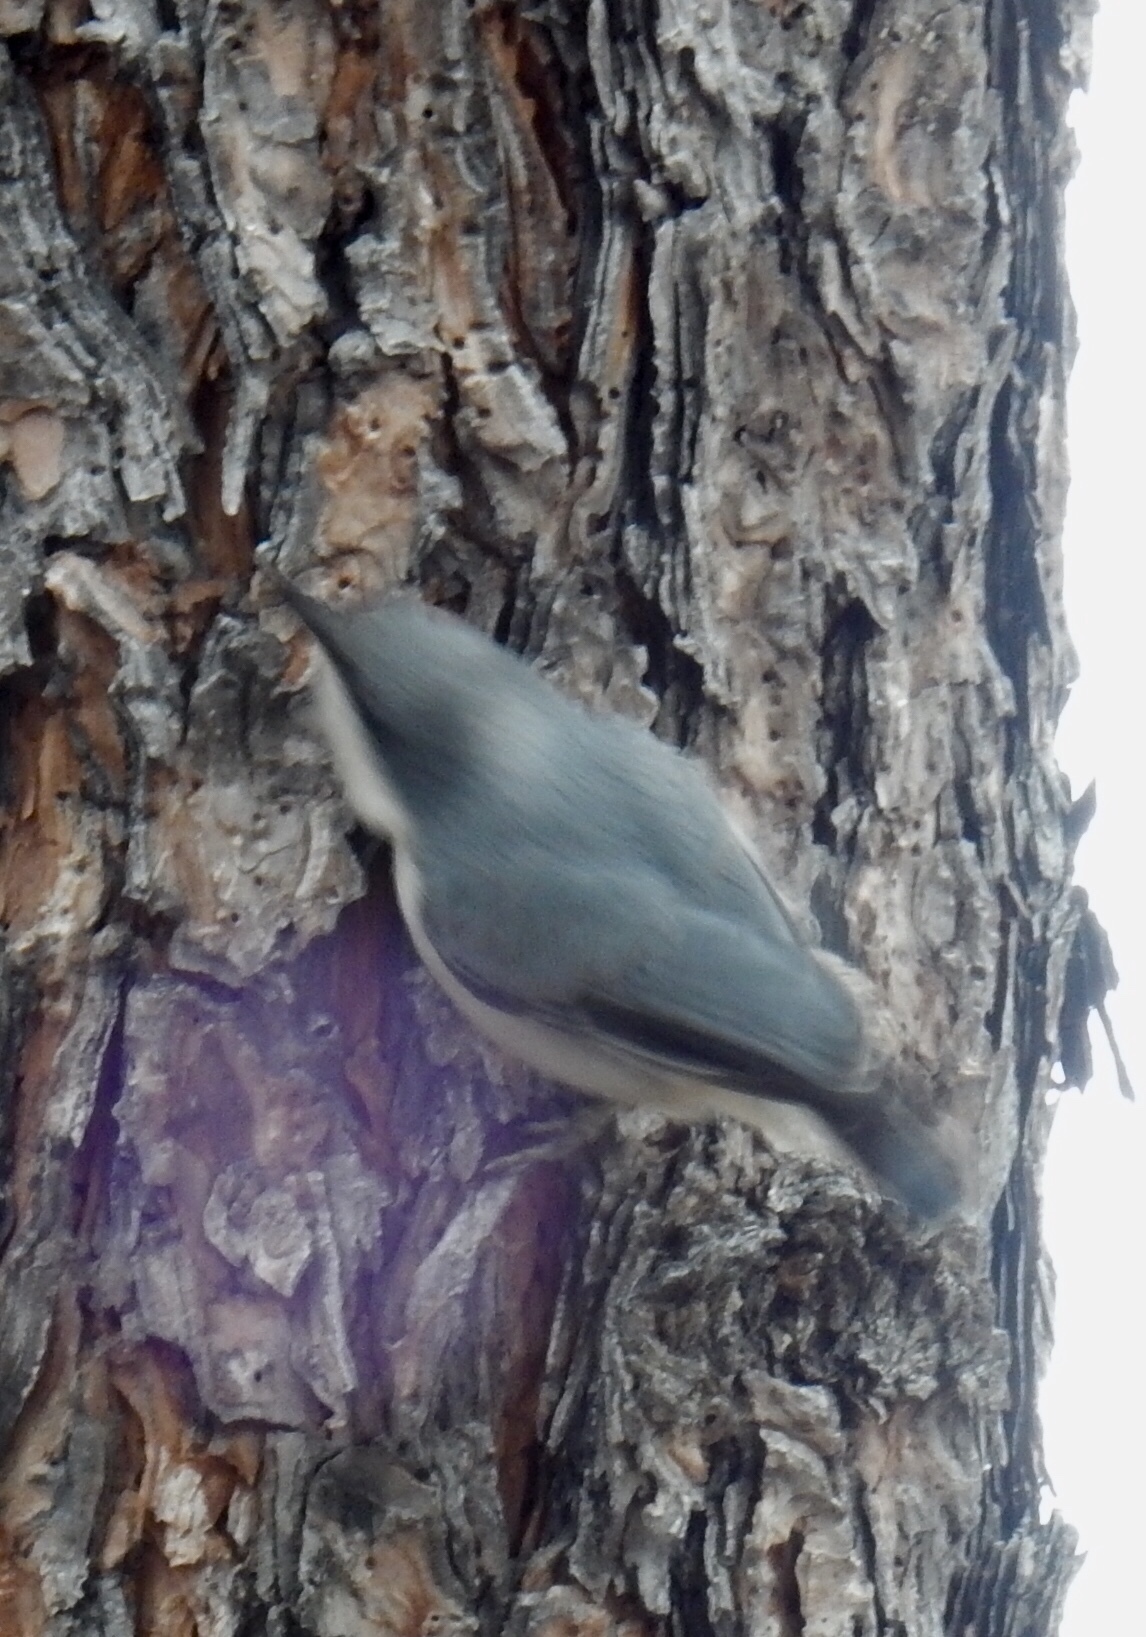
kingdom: Animalia
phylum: Chordata
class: Aves
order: Passeriformes
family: Sittidae
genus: Sitta
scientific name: Sitta pygmaea
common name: Pygmy nuthatch
